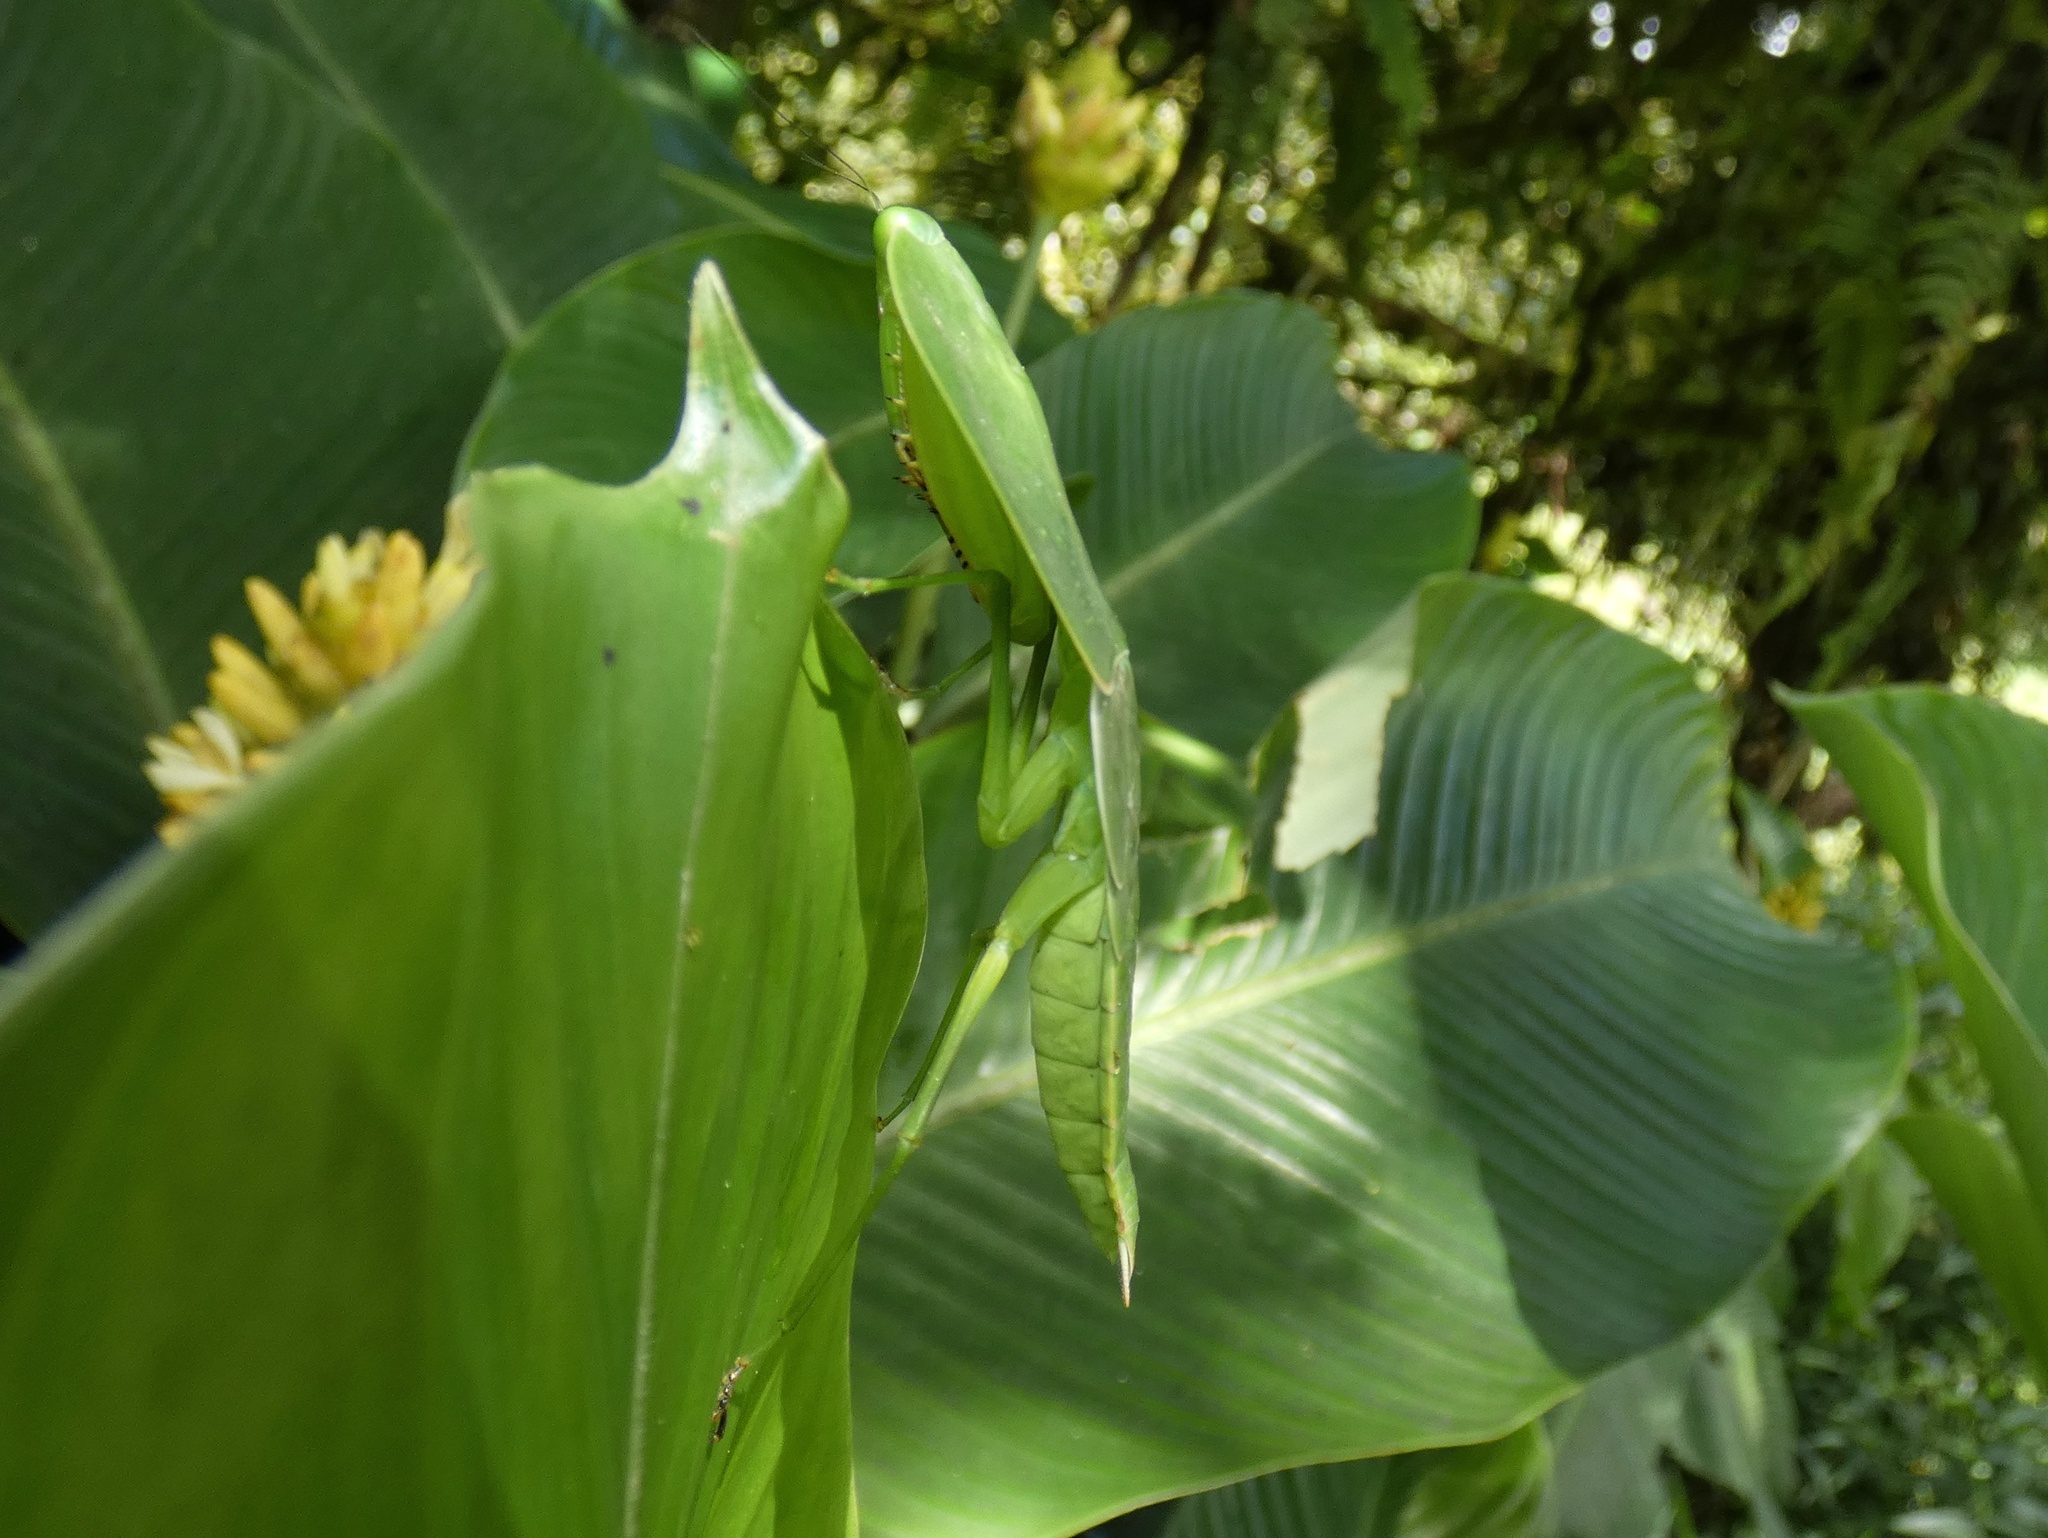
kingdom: Animalia
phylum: Arthropoda
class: Insecta
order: Mantodea
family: Mantidae
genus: Choeradodis
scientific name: Choeradodis rhombicollis
